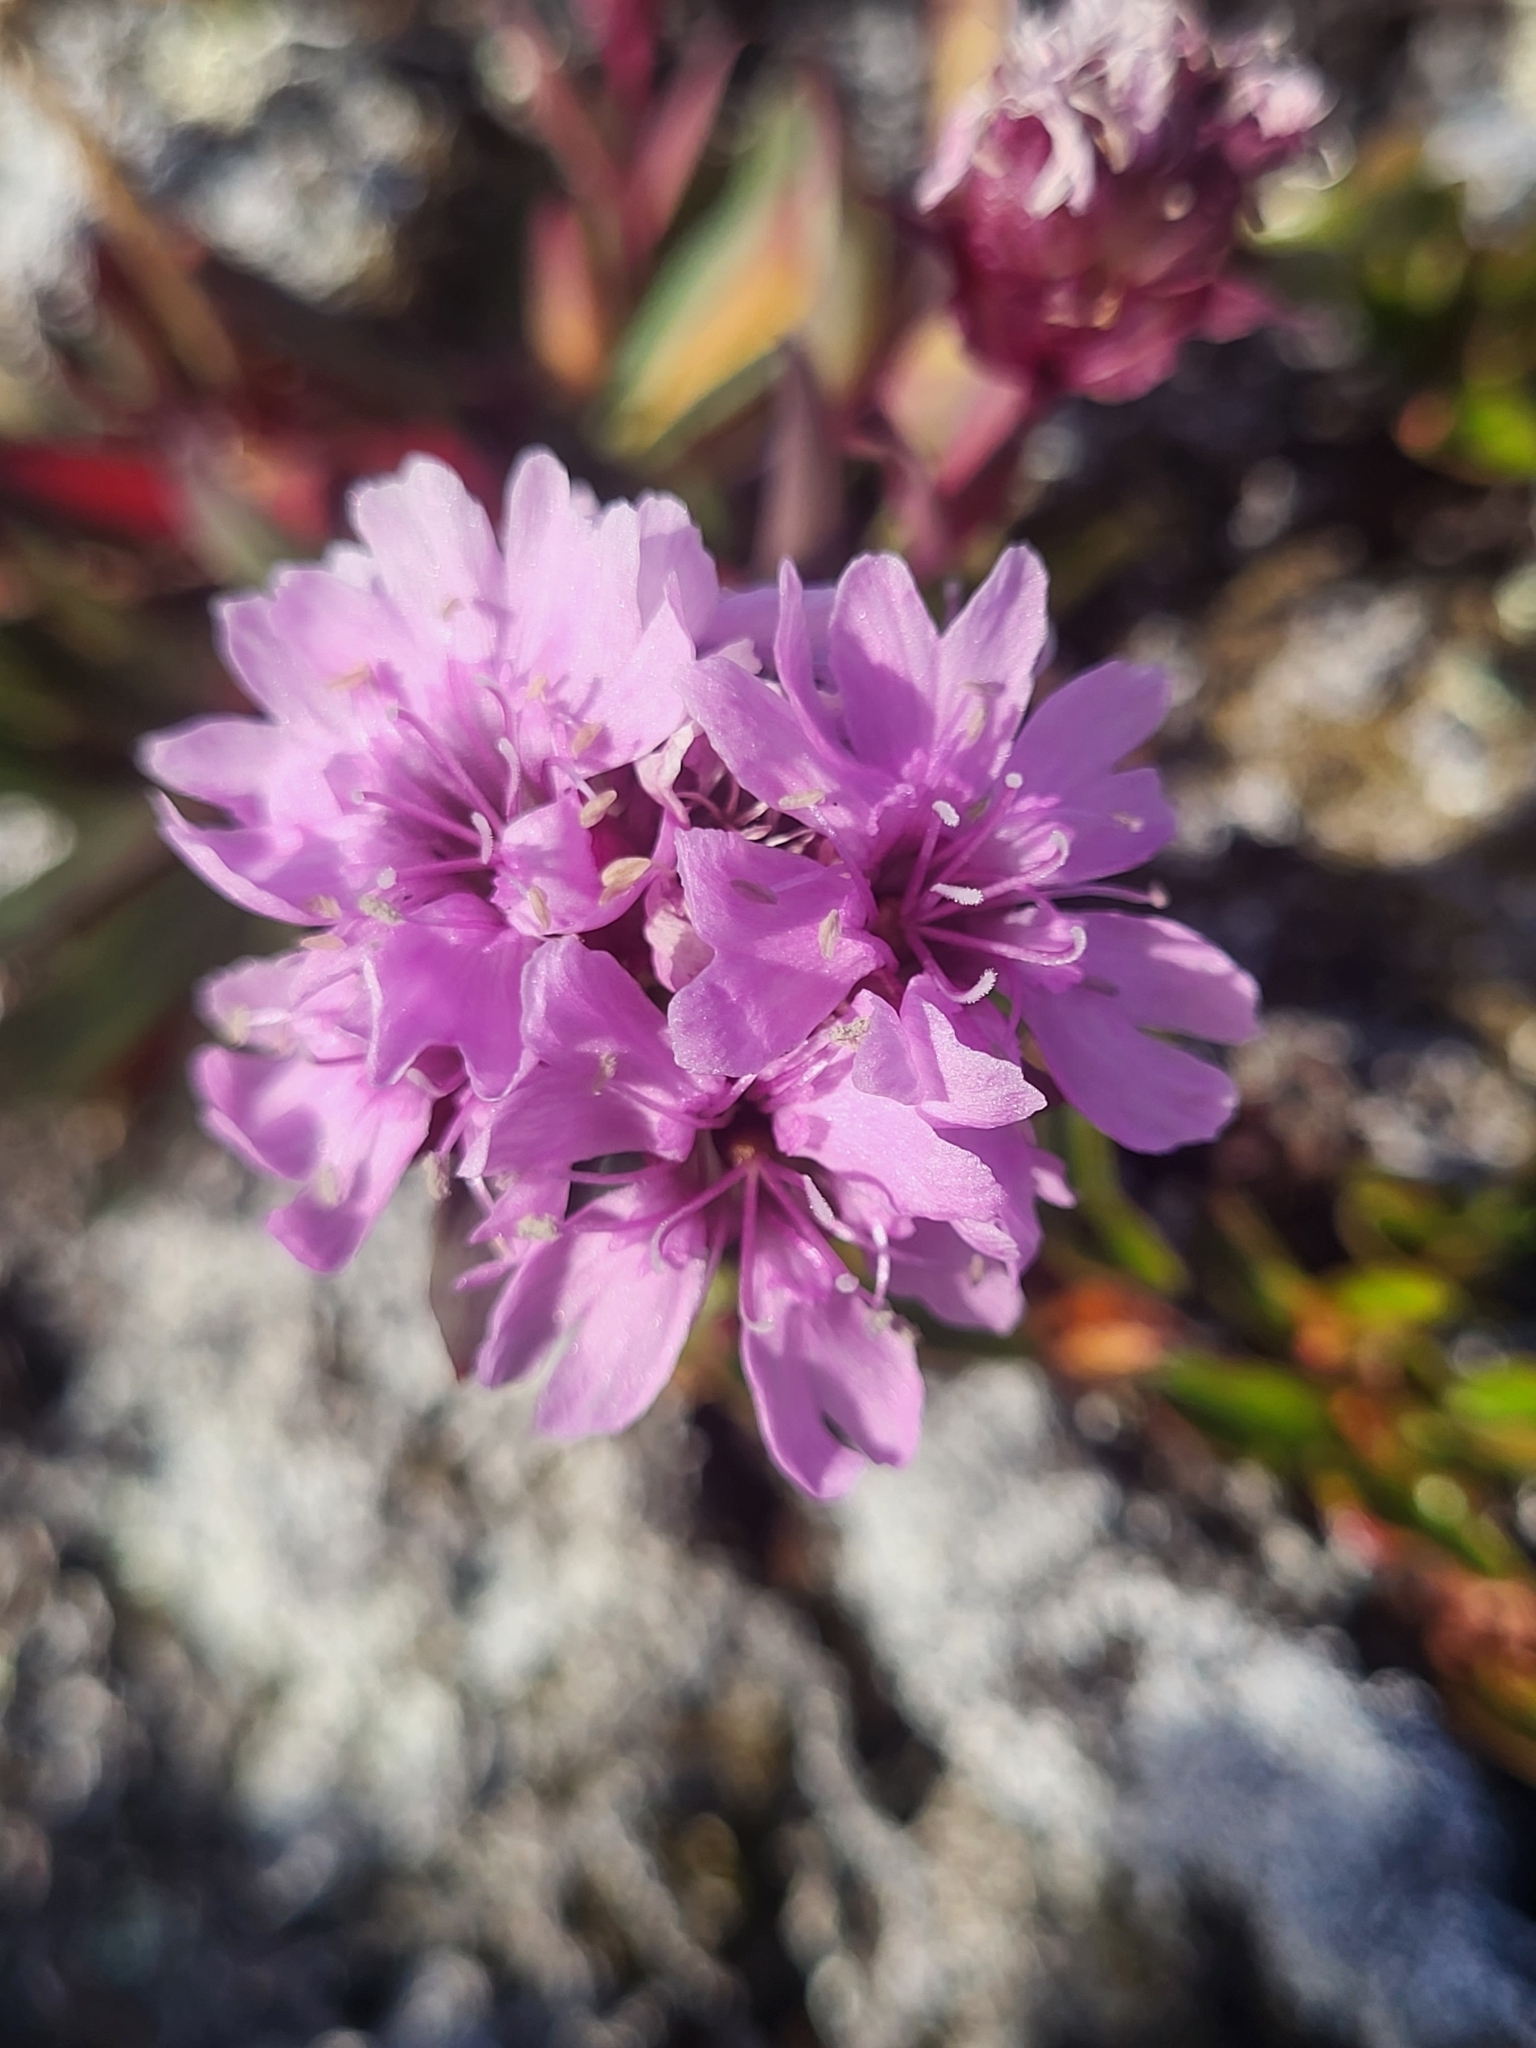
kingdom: Plantae
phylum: Tracheophyta
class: Magnoliopsida
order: Caryophyllales
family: Caryophyllaceae
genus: Viscaria
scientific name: Viscaria alpina
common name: Alpine campion
